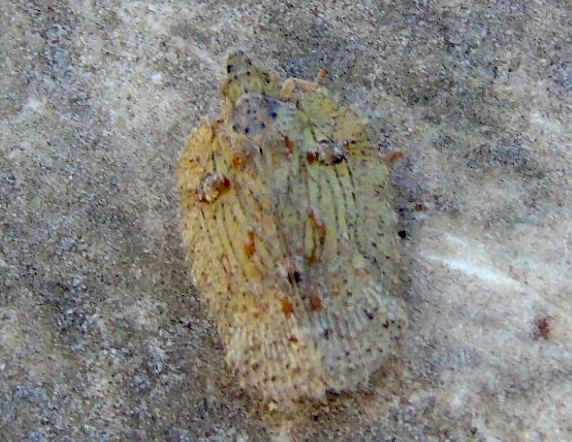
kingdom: Animalia
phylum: Arthropoda
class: Insecta
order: Hemiptera
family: Flatidae
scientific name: Flatidae
